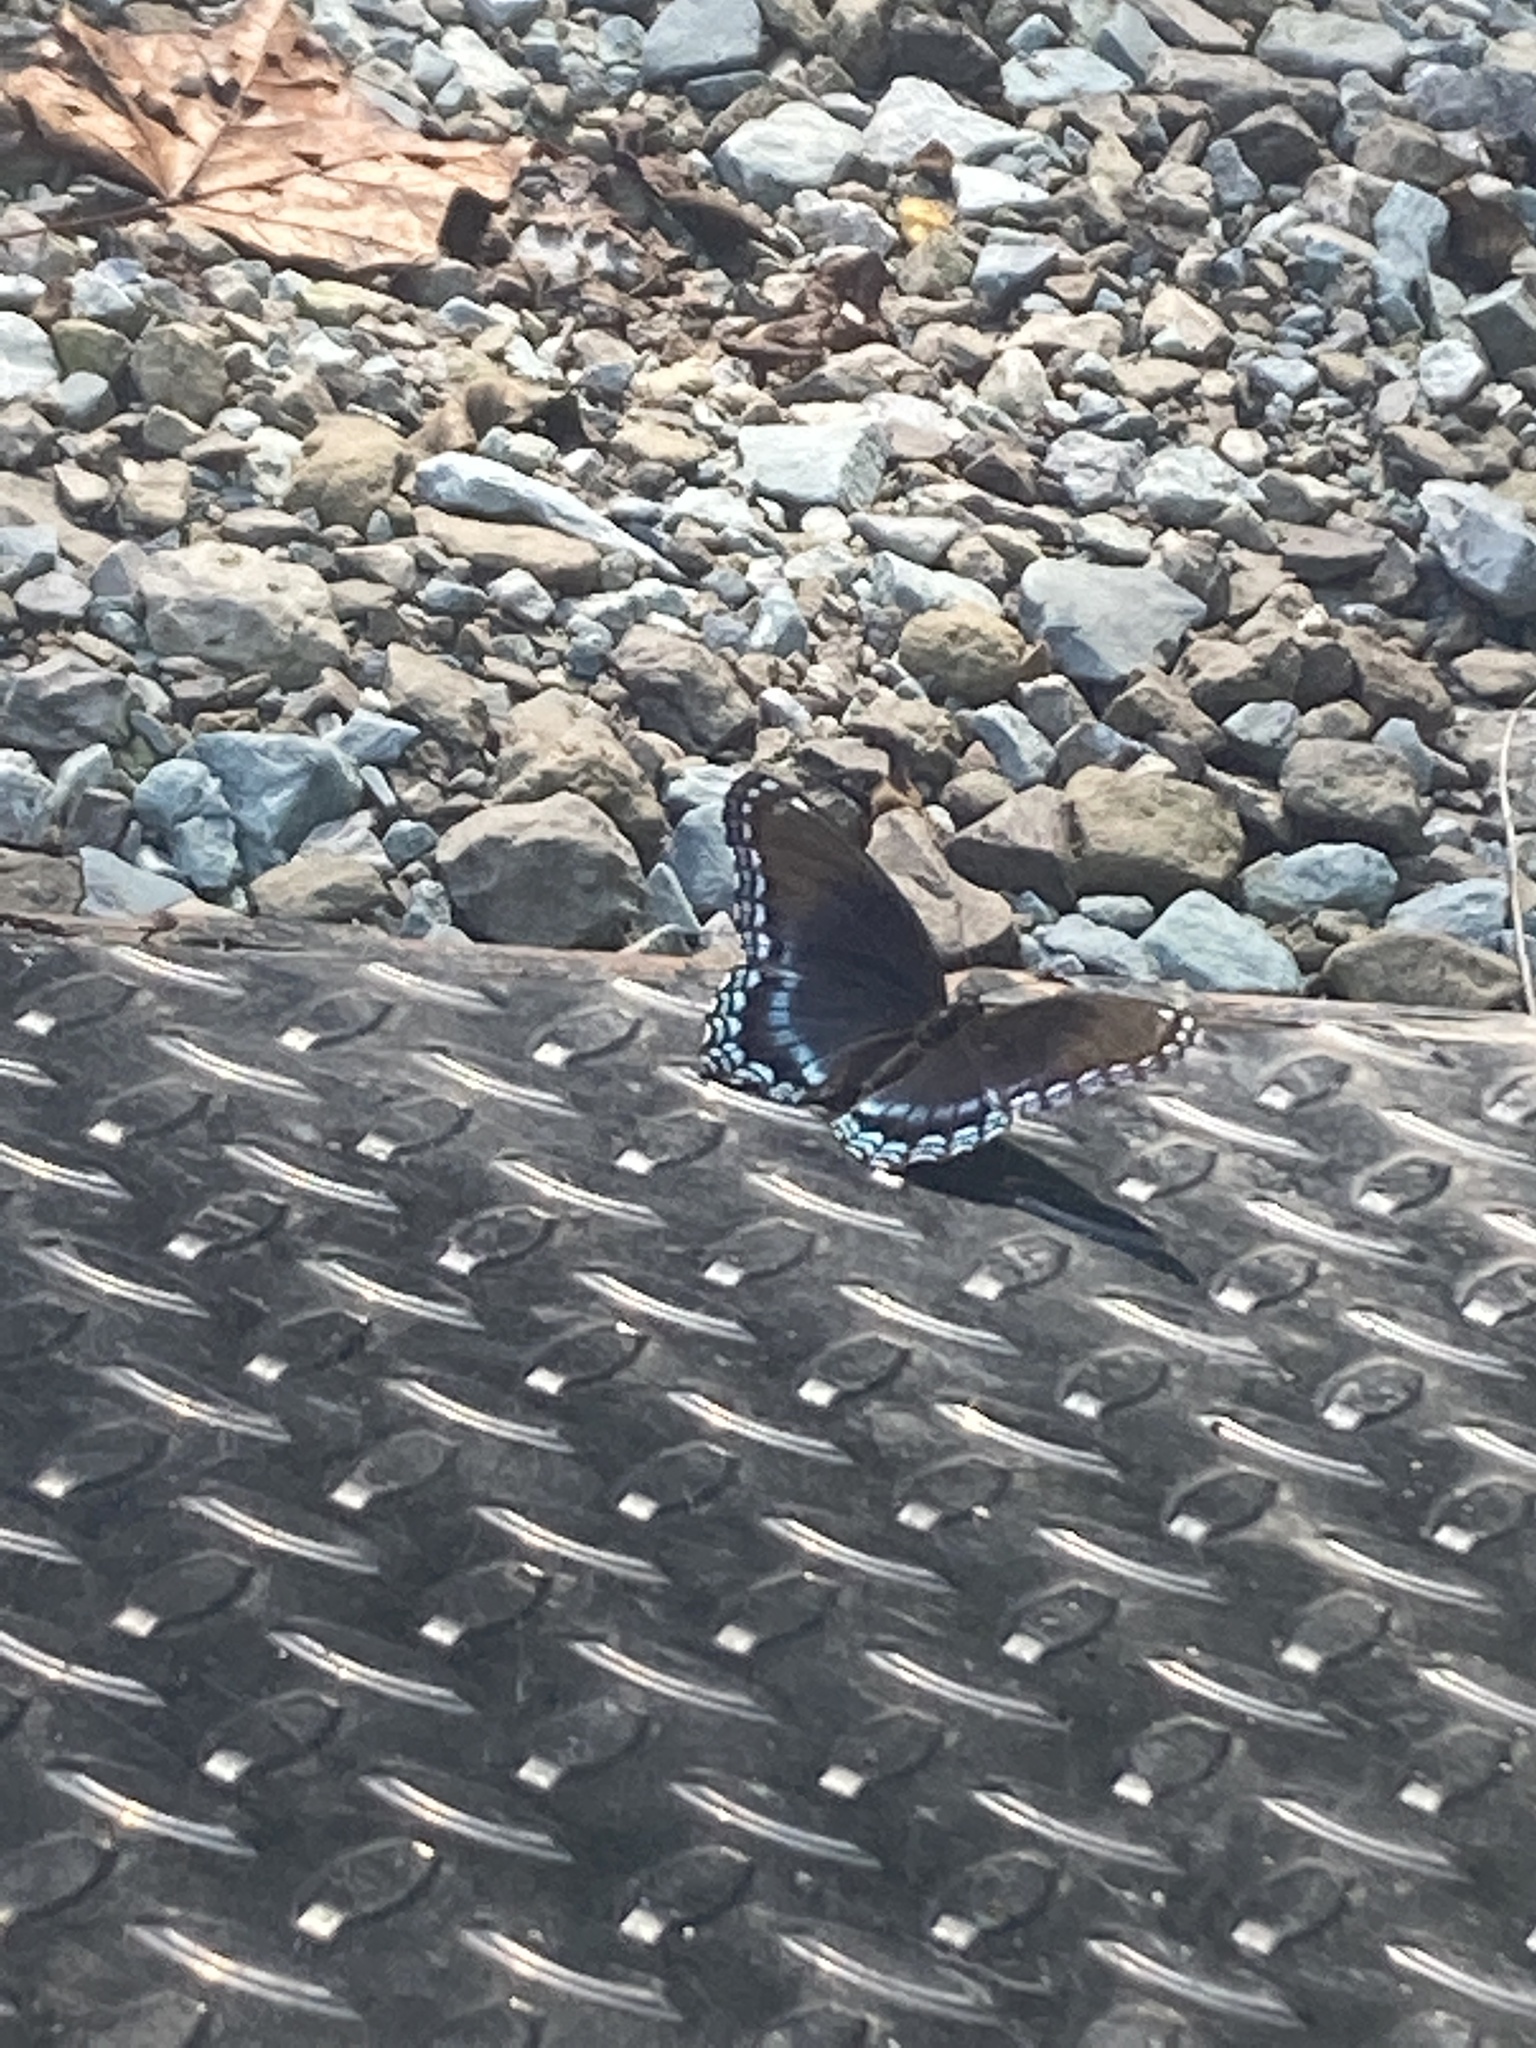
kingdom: Animalia
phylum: Arthropoda
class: Insecta
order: Lepidoptera
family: Nymphalidae
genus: Limenitis
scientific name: Limenitis arthemis
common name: Red-spotted admiral
